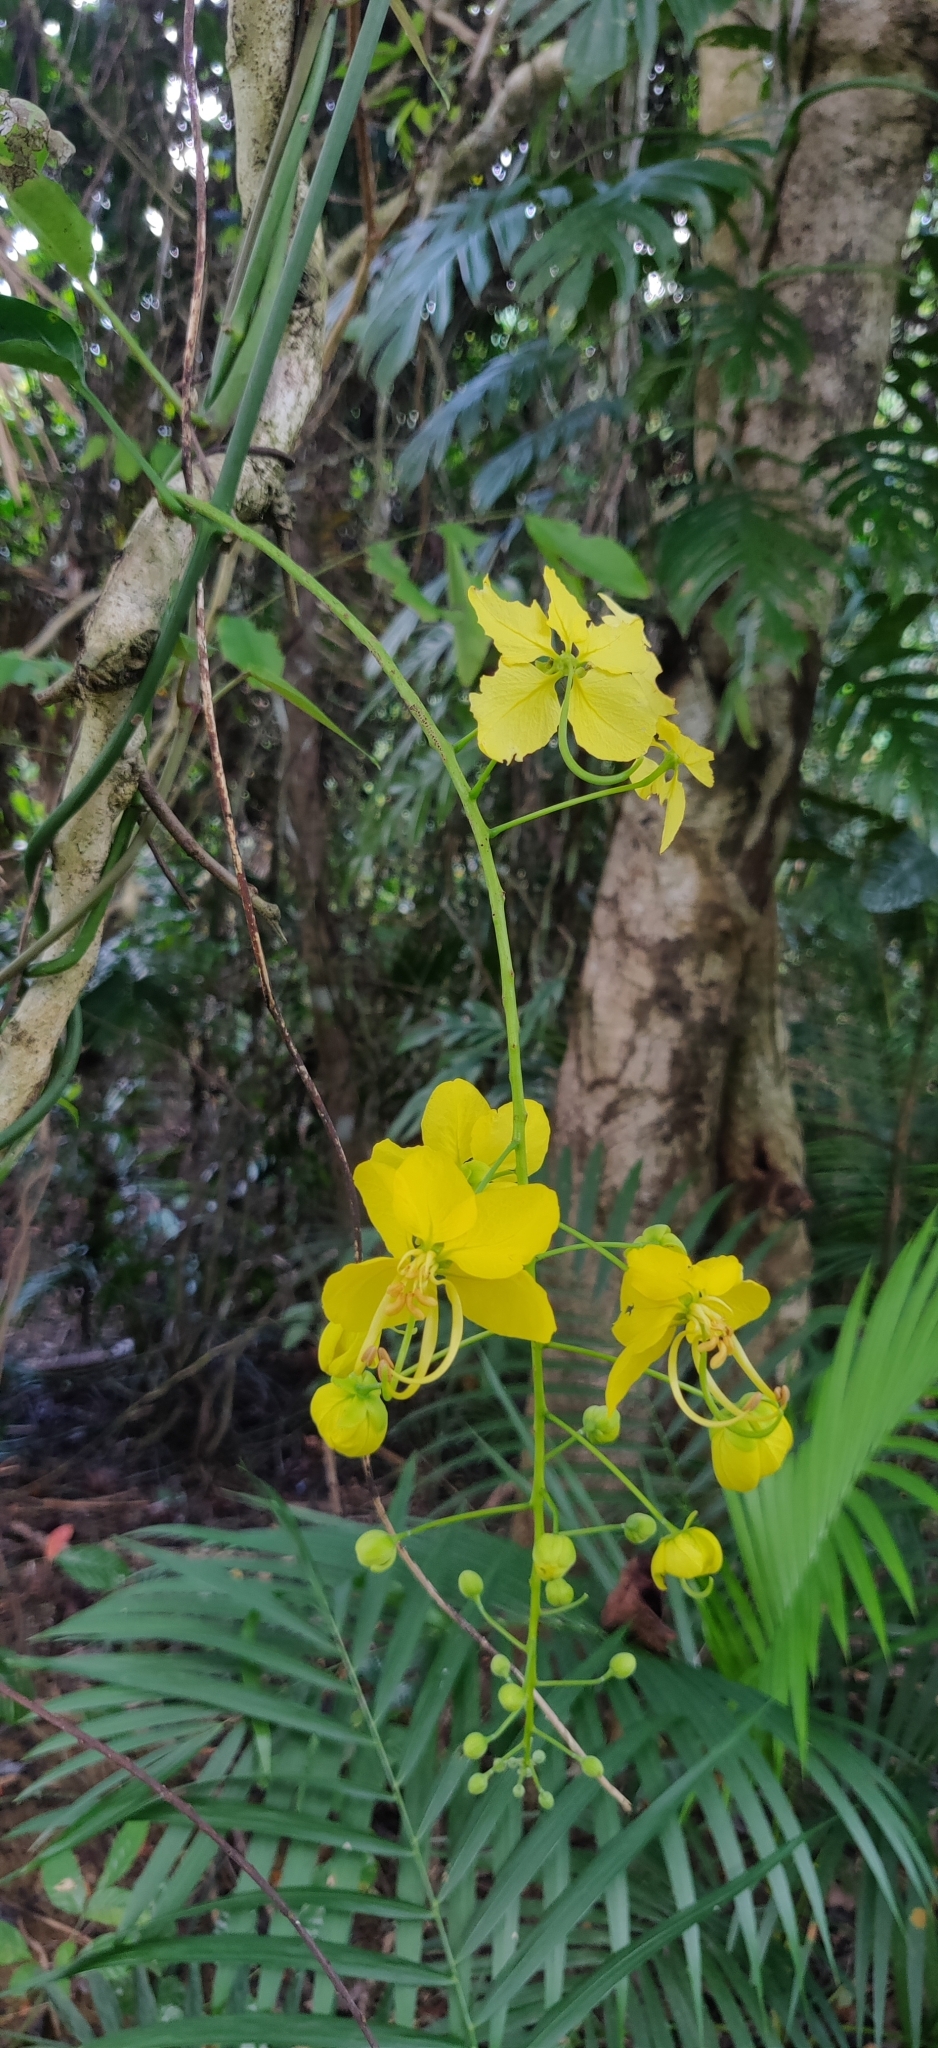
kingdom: Plantae
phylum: Tracheophyta
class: Magnoliopsida
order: Fabales
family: Fabaceae
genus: Cassia
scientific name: Cassia fistula
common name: Golden shower
